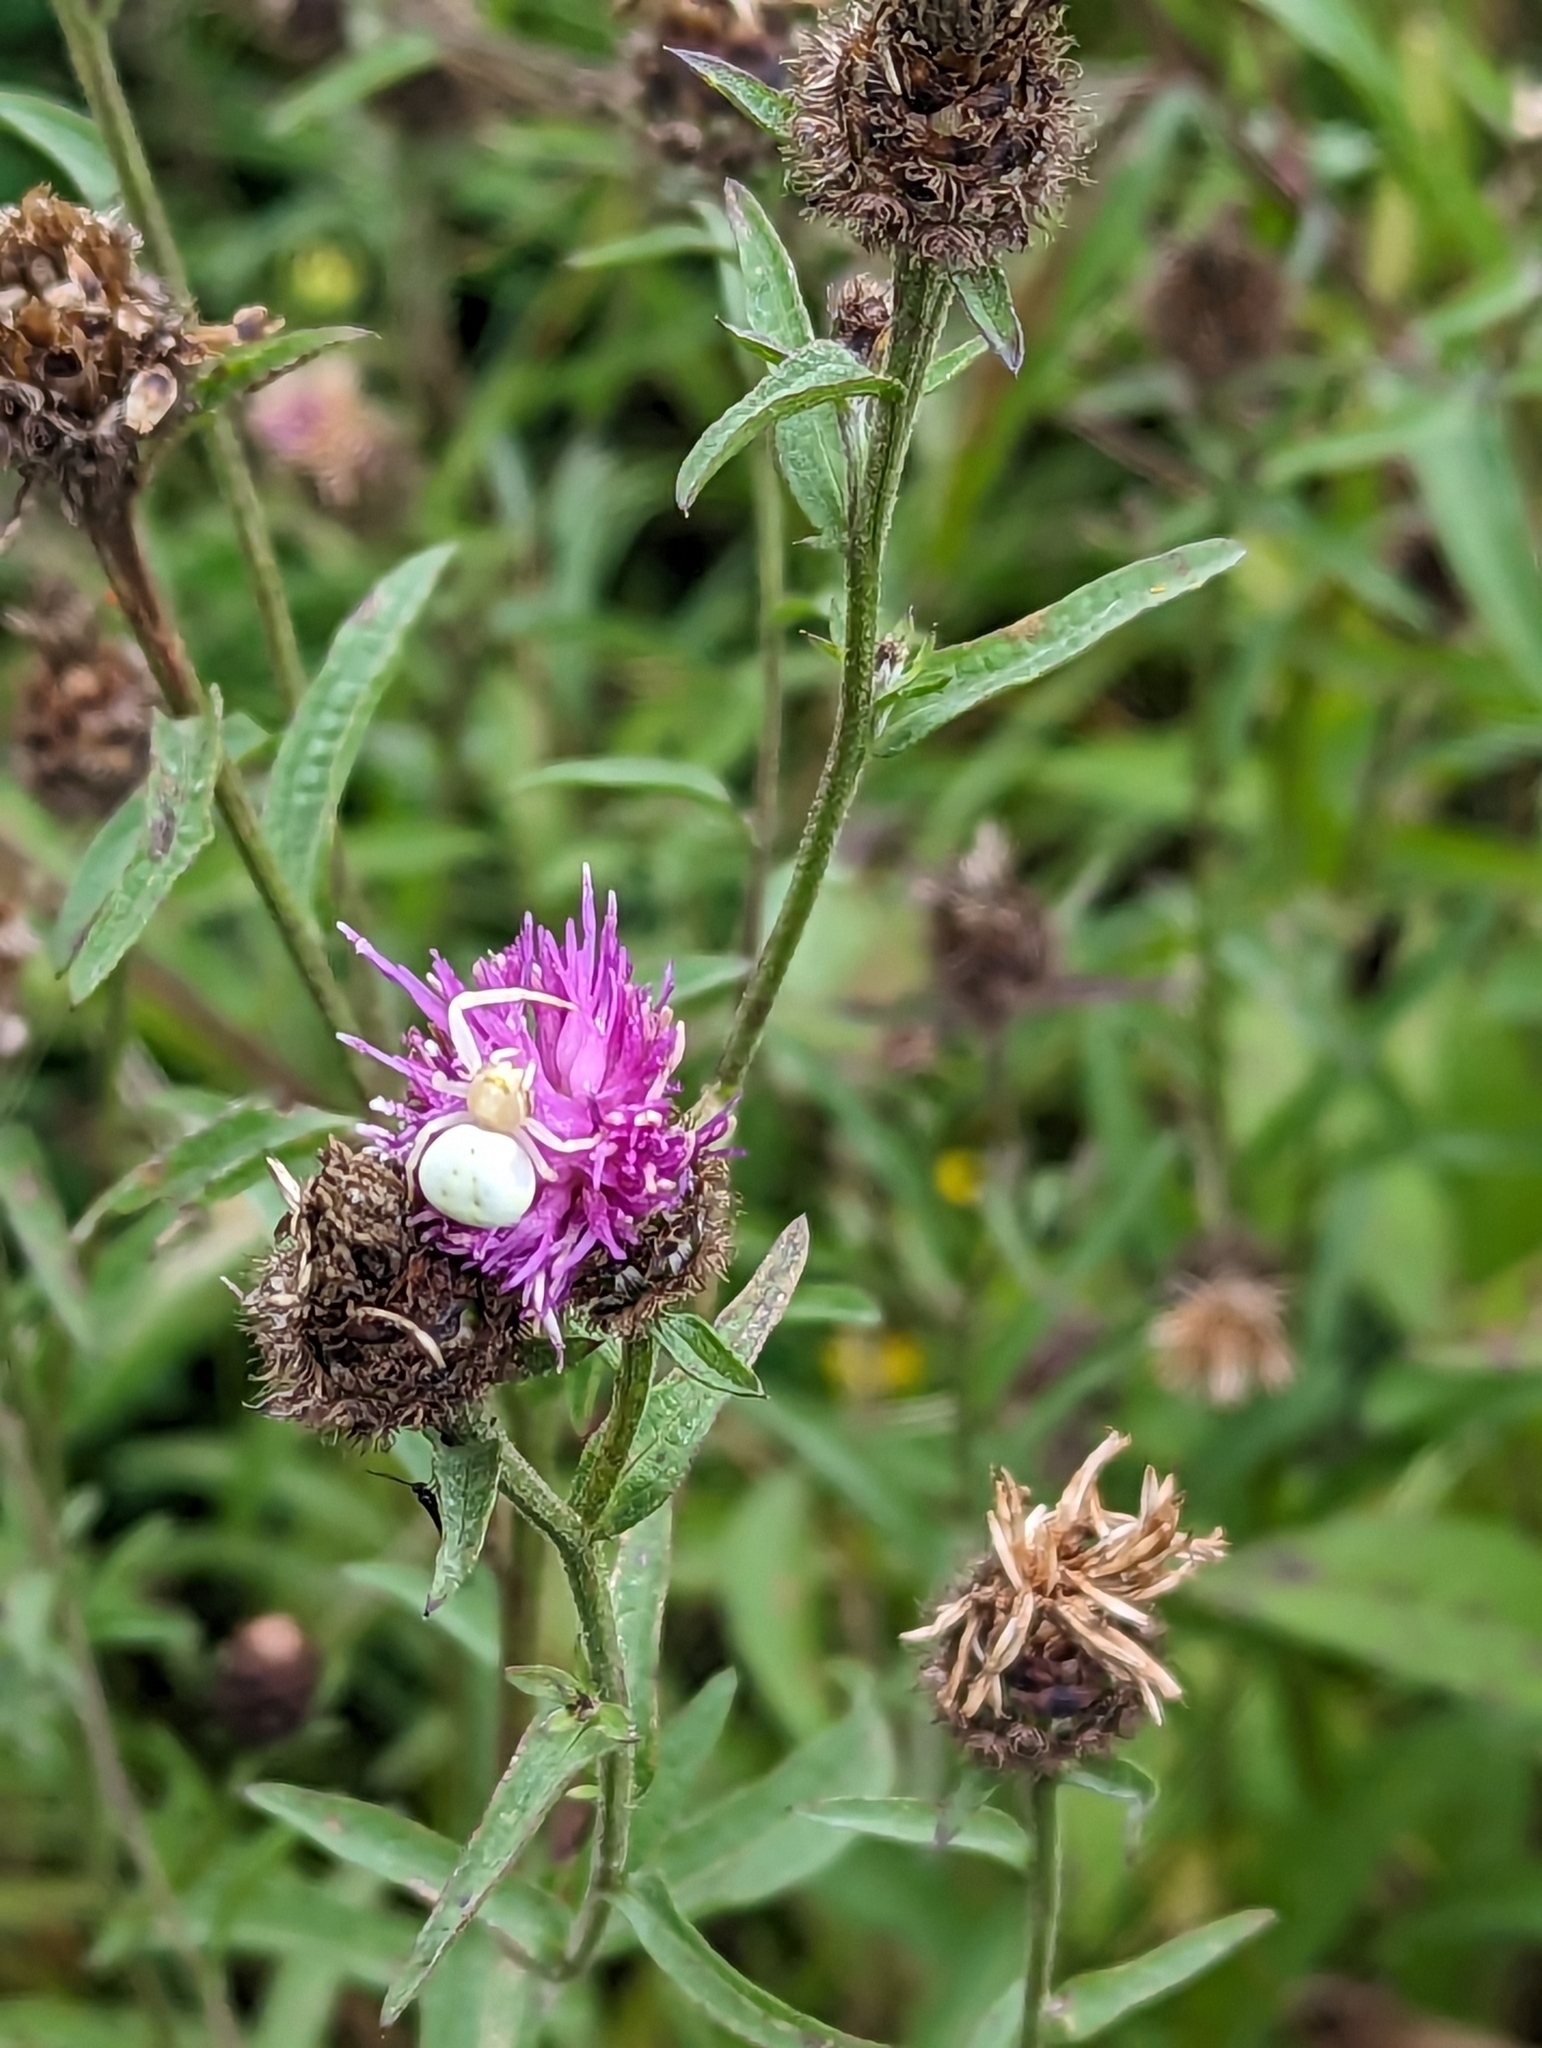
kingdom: Animalia
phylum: Arthropoda
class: Arachnida
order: Araneae
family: Thomisidae
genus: Misumena
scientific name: Misumena vatia
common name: Goldenrod crab spider
